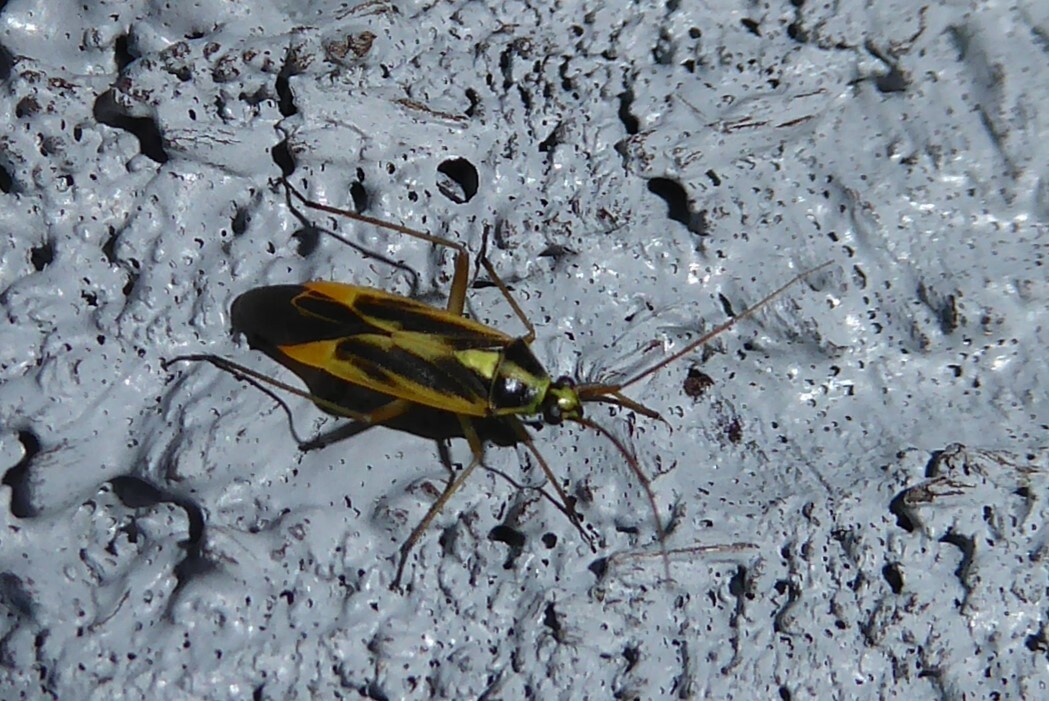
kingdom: Animalia
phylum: Arthropoda
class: Insecta
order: Hemiptera
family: Miridae
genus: Stenotus
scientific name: Stenotus binotatus
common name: Plant bug
